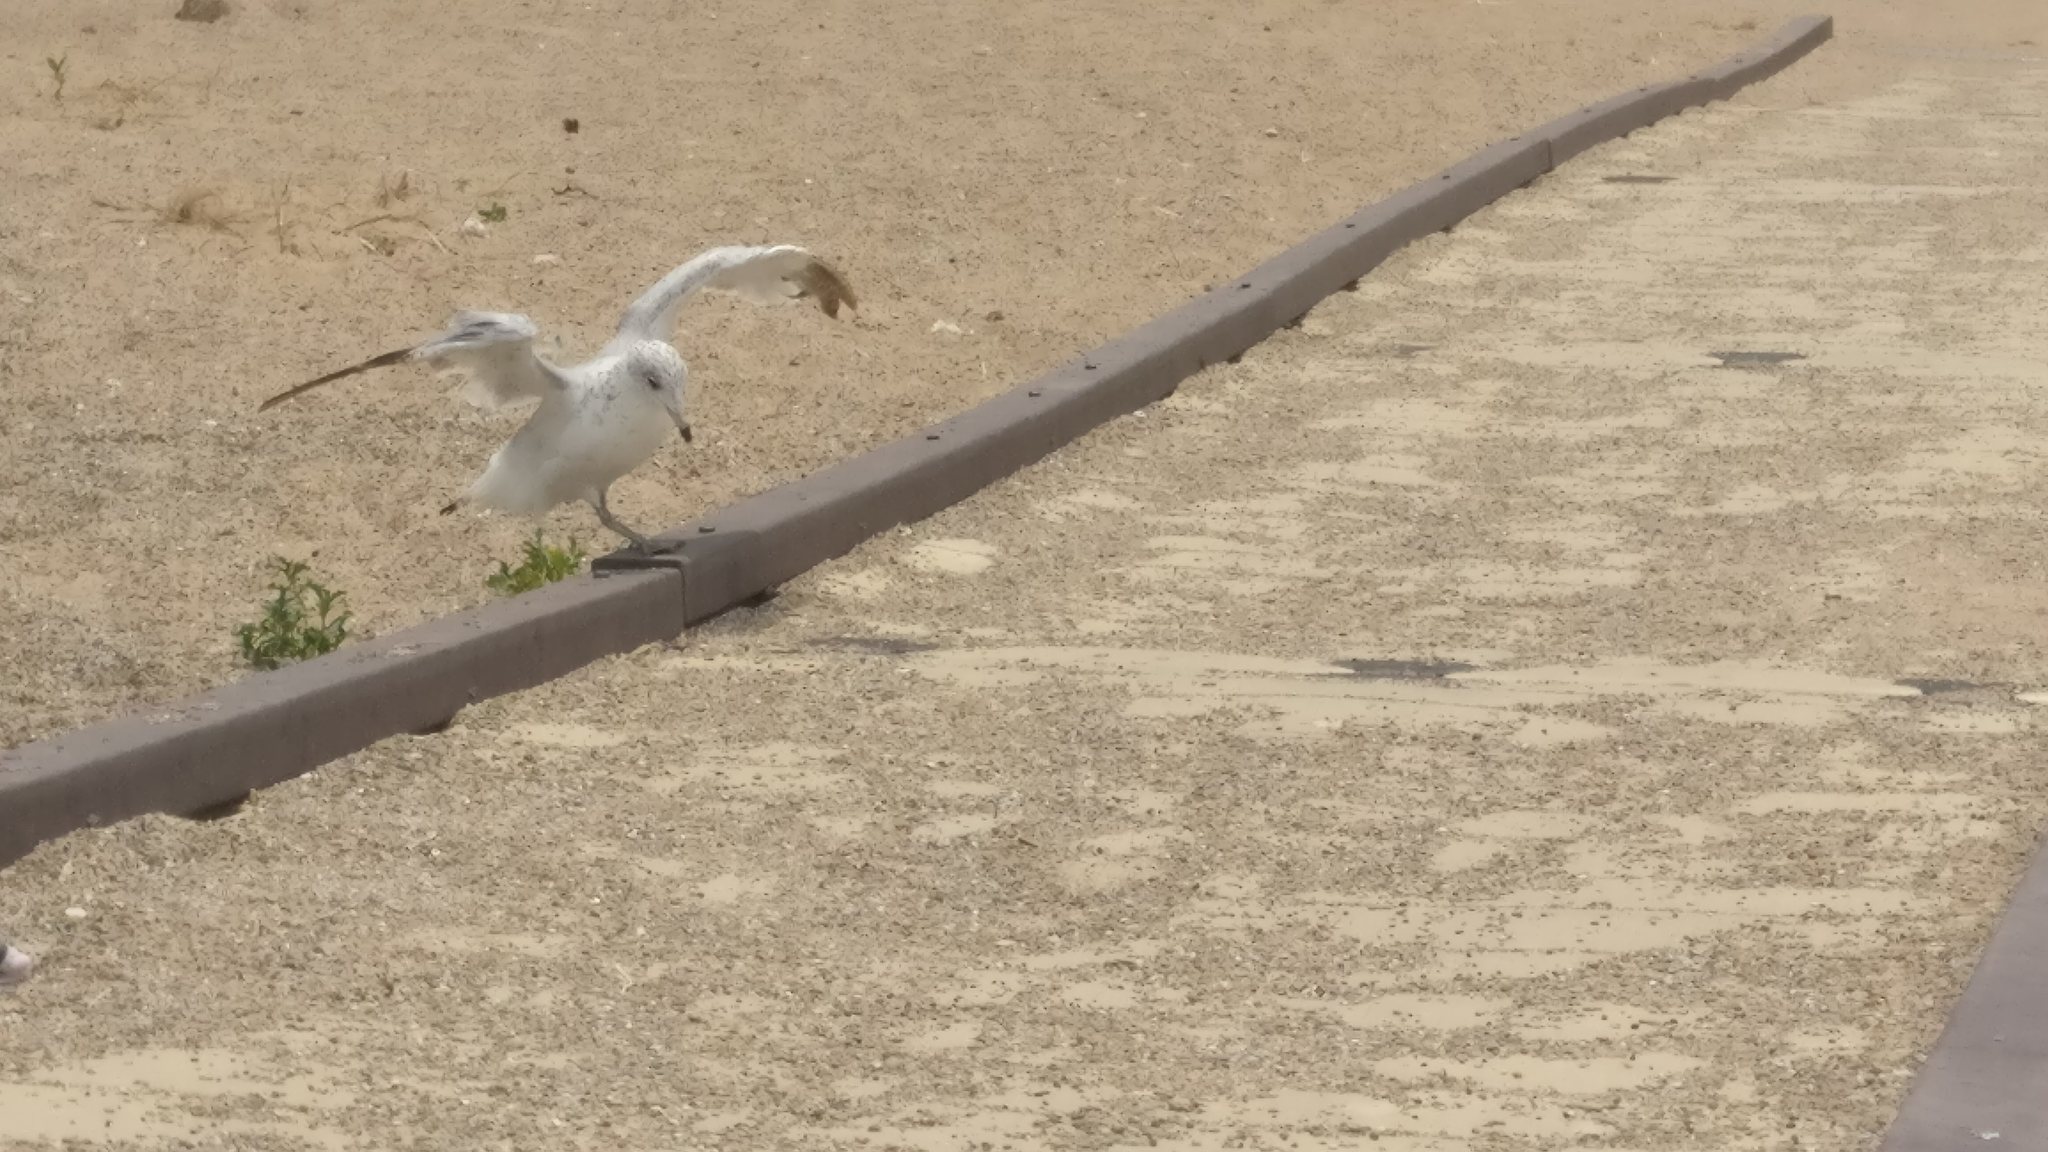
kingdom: Animalia
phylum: Chordata
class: Aves
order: Charadriiformes
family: Laridae
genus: Larus
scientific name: Larus delawarensis
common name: Ring-billed gull
